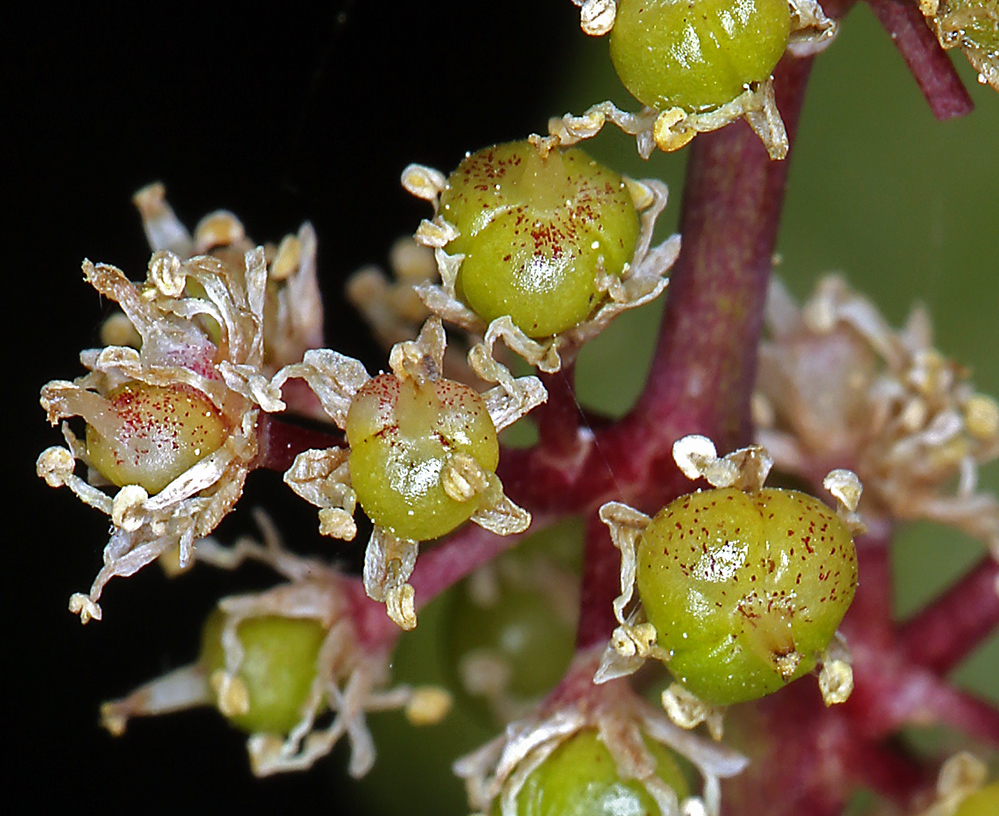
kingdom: Plantae
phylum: Tracheophyta
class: Liliopsida
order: Asparagales
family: Asparagaceae
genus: Maianthemum
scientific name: Maianthemum racemosum
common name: False spikenard
